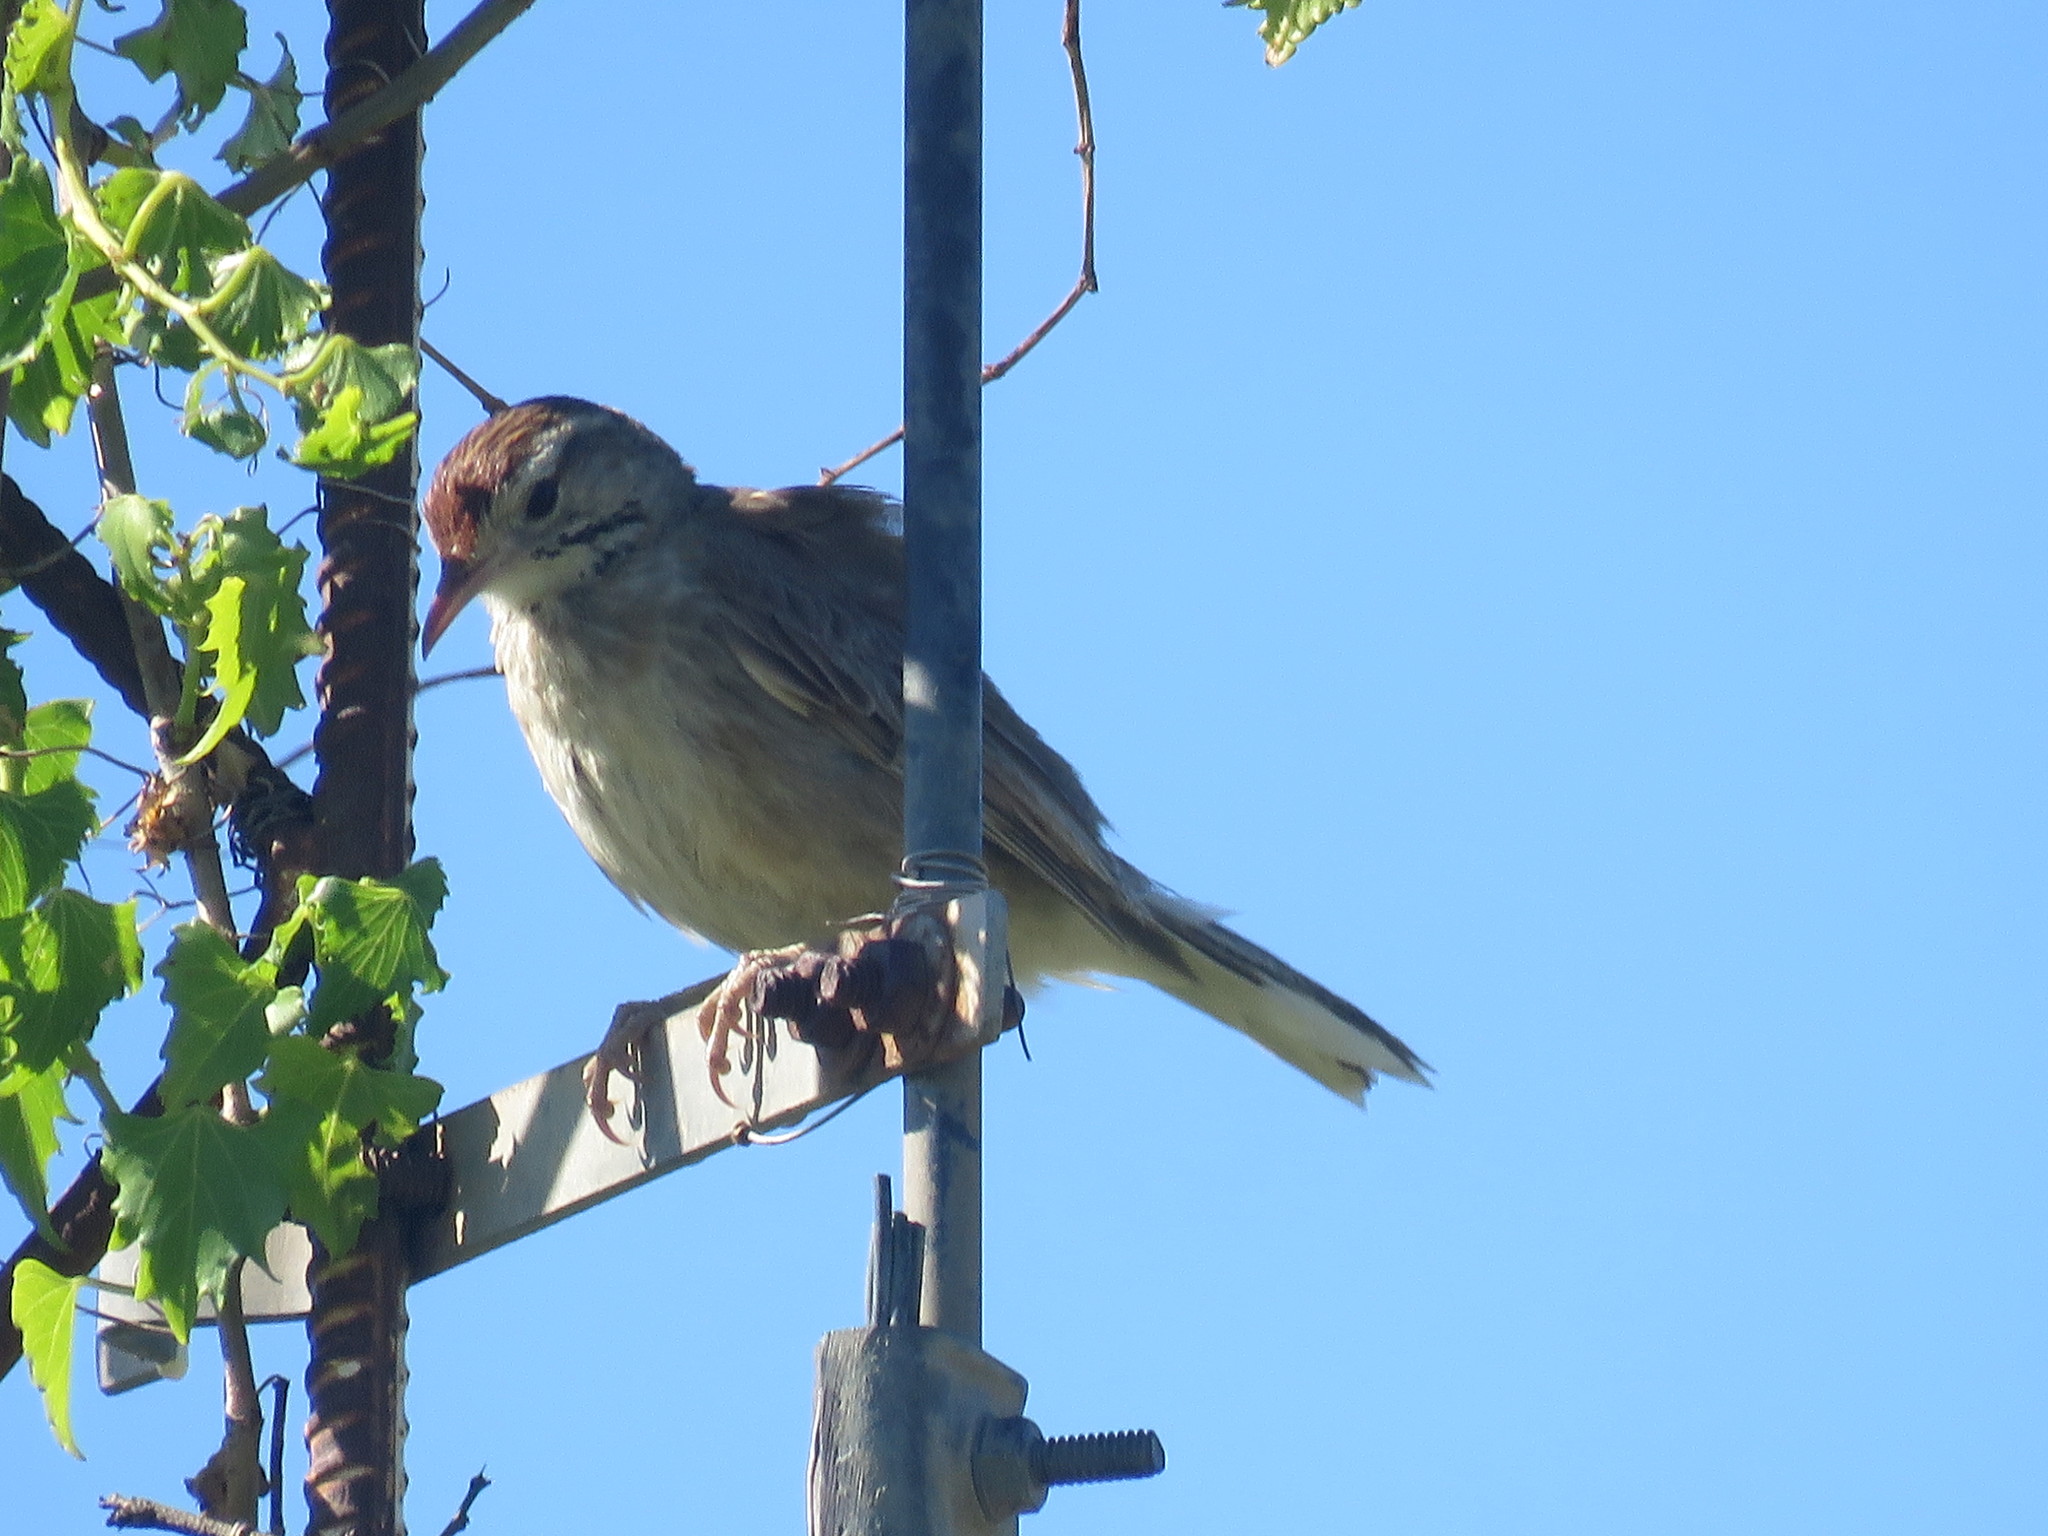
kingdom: Animalia
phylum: Chordata
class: Aves
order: Passeriformes
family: Furnariidae
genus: Anumbius
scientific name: Anumbius annumbi
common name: Firewood-gatherer
